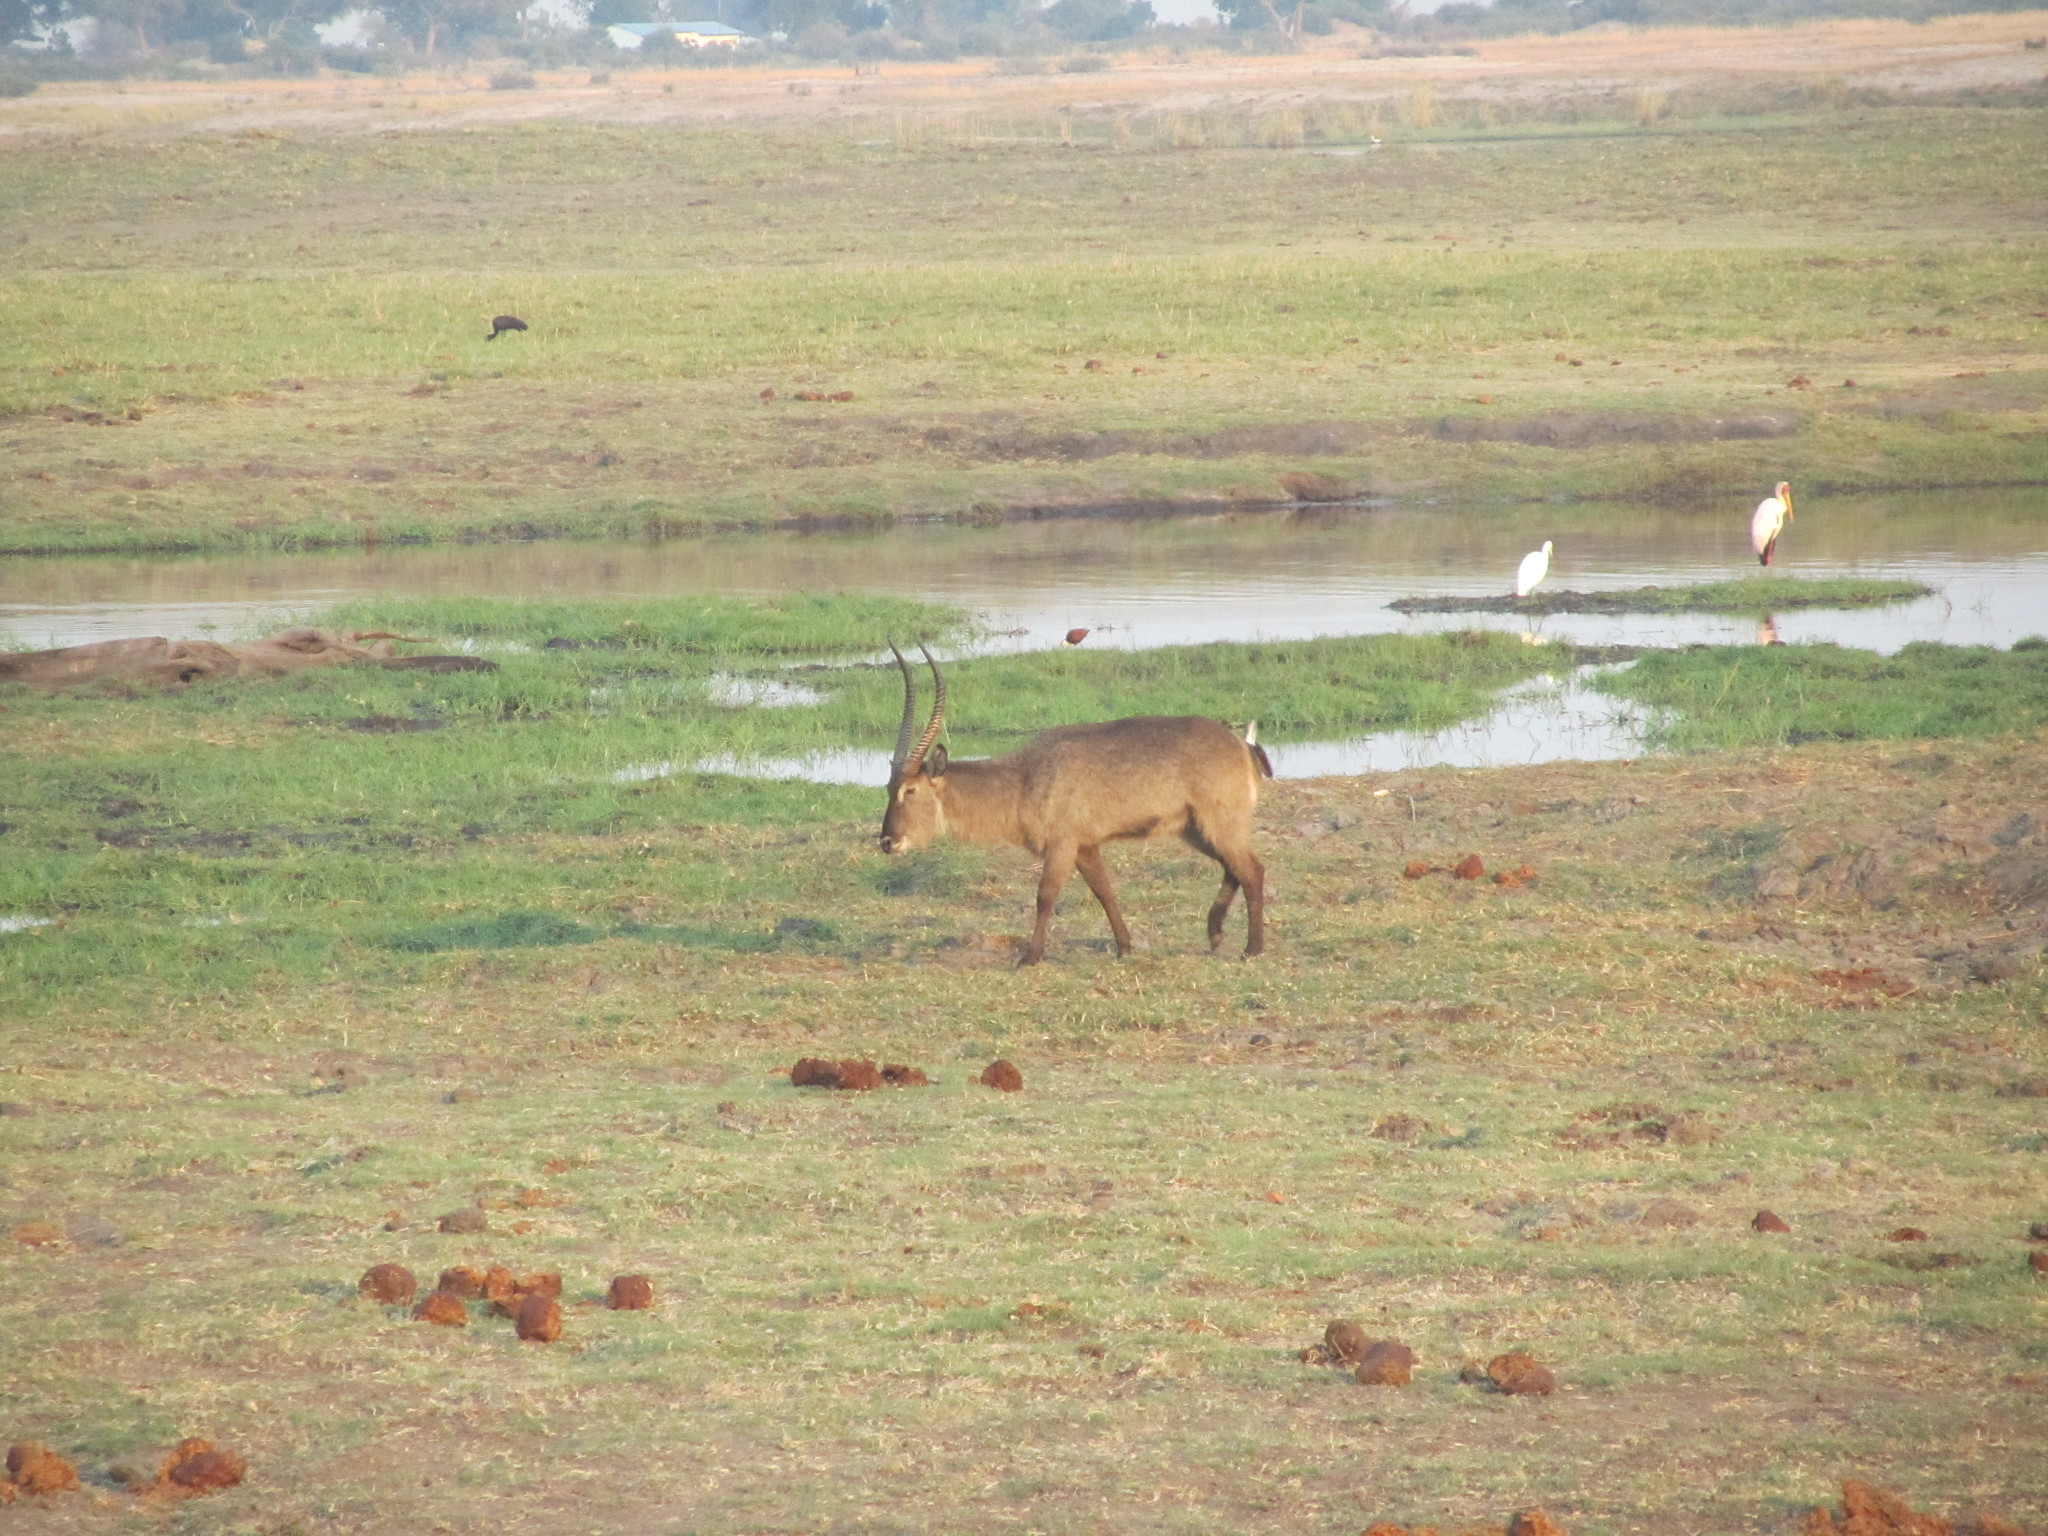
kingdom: Animalia
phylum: Chordata
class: Mammalia
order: Artiodactyla
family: Bovidae
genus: Kobus
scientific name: Kobus ellipsiprymnus
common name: Waterbuck
